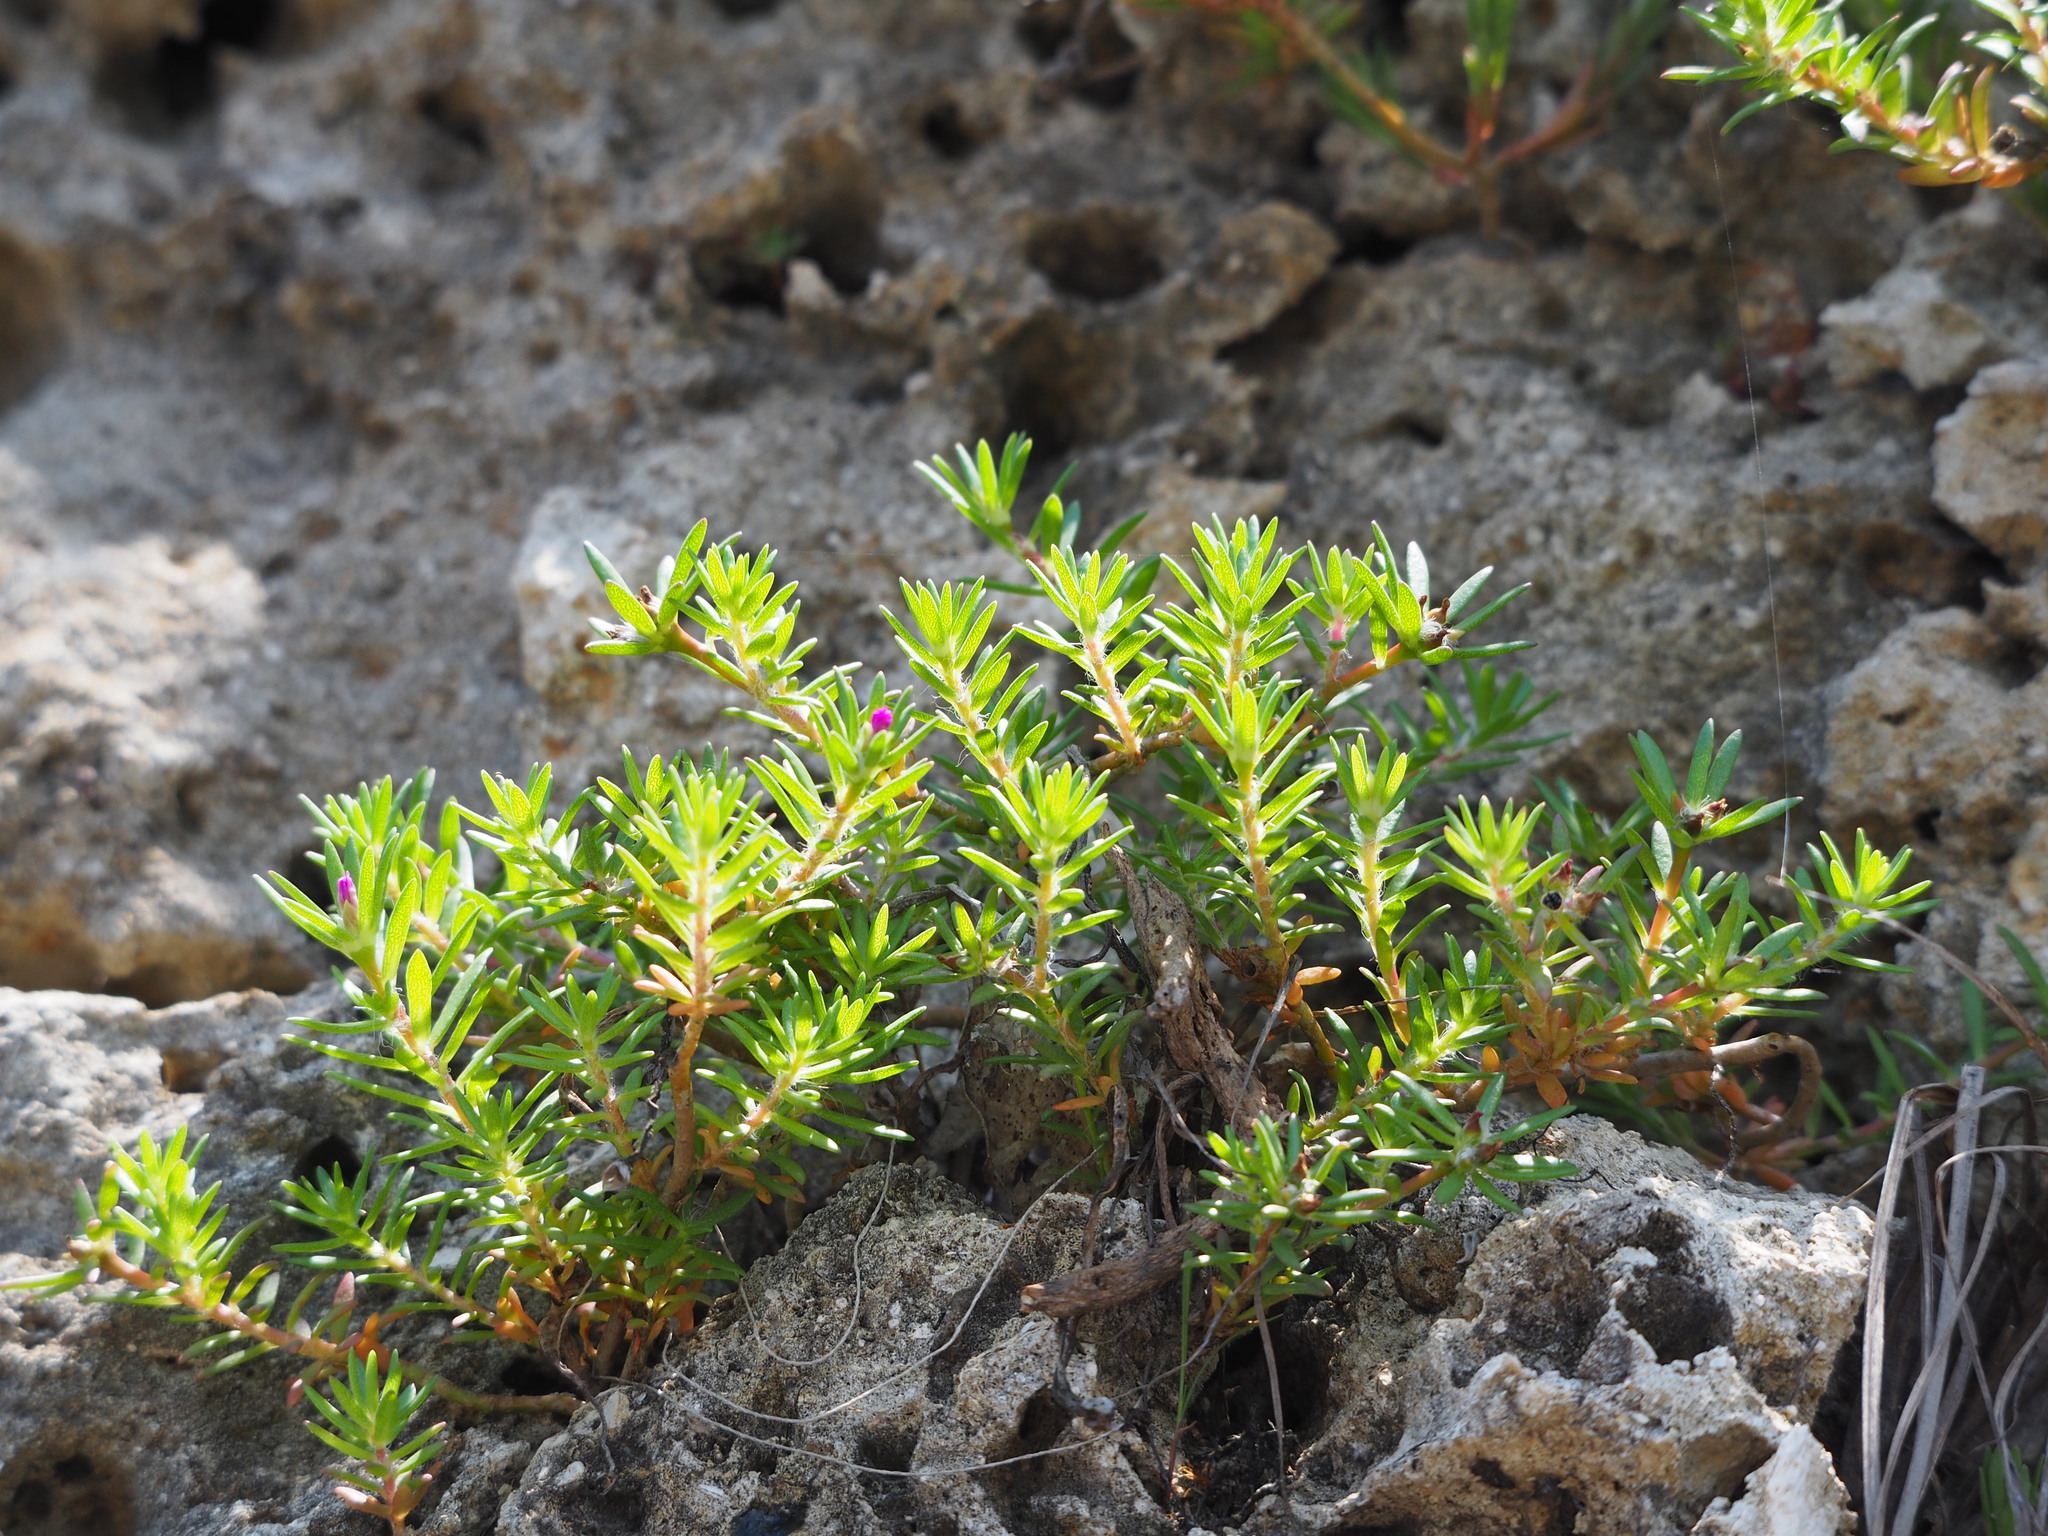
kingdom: Plantae
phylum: Tracheophyta
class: Magnoliopsida
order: Caryophyllales
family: Portulacaceae
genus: Portulaca
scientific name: Portulaca pilosa
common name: Kiss me quick
